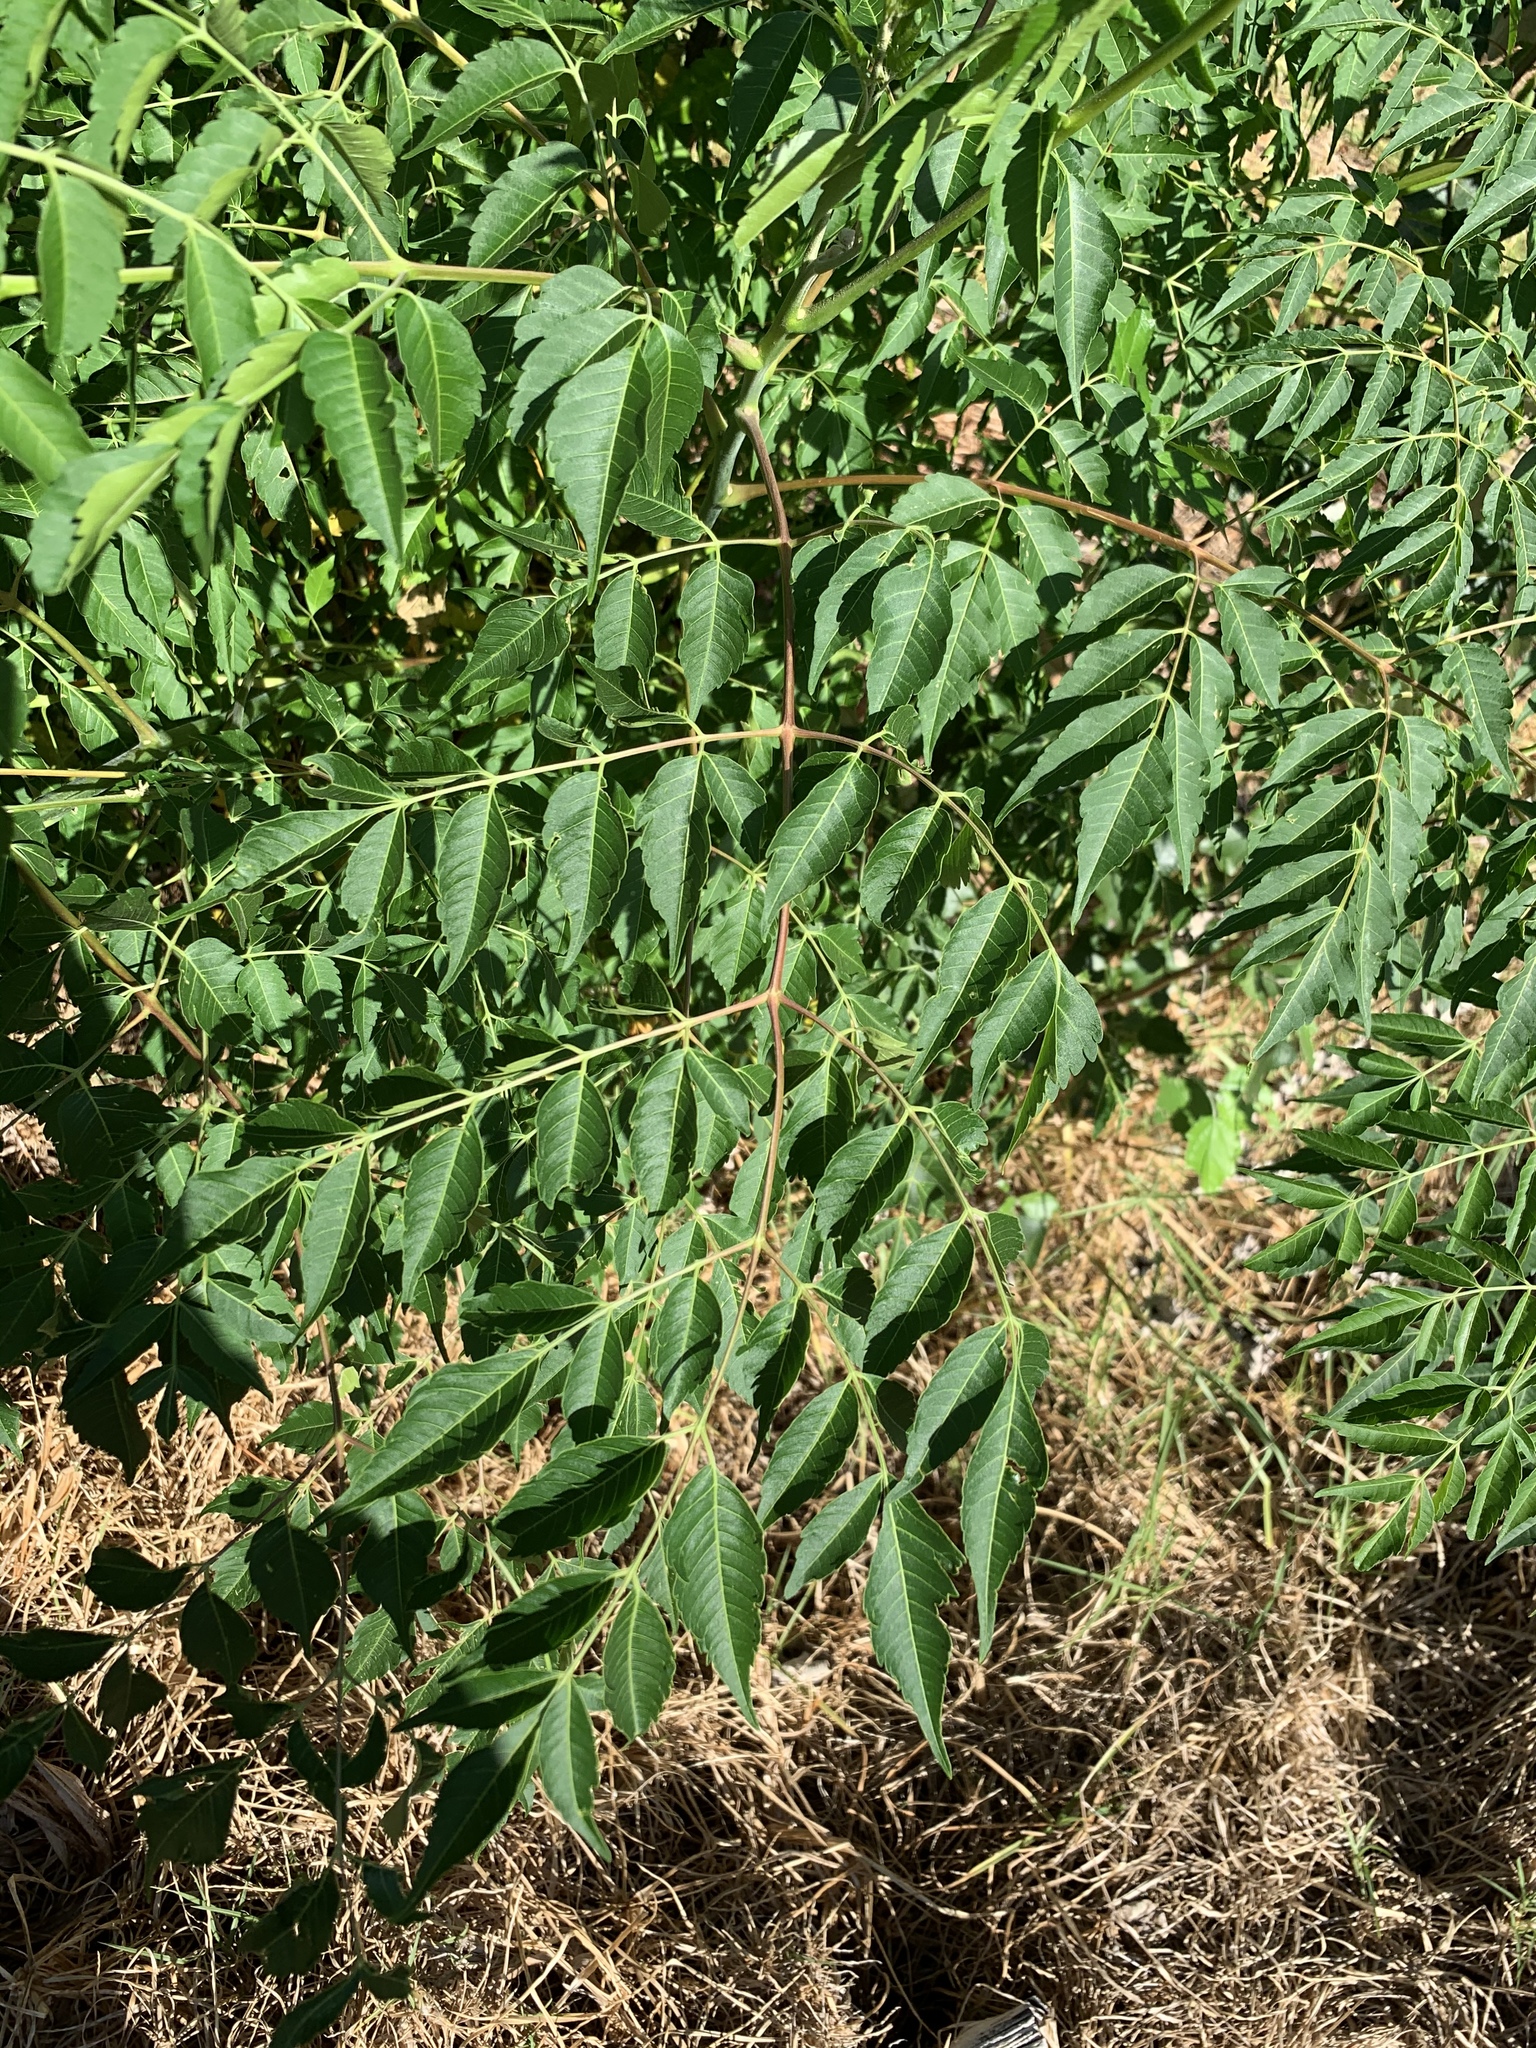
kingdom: Plantae
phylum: Tracheophyta
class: Magnoliopsida
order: Sapindales
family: Meliaceae
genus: Melia
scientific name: Melia azedarach
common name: Chinaberrytree
